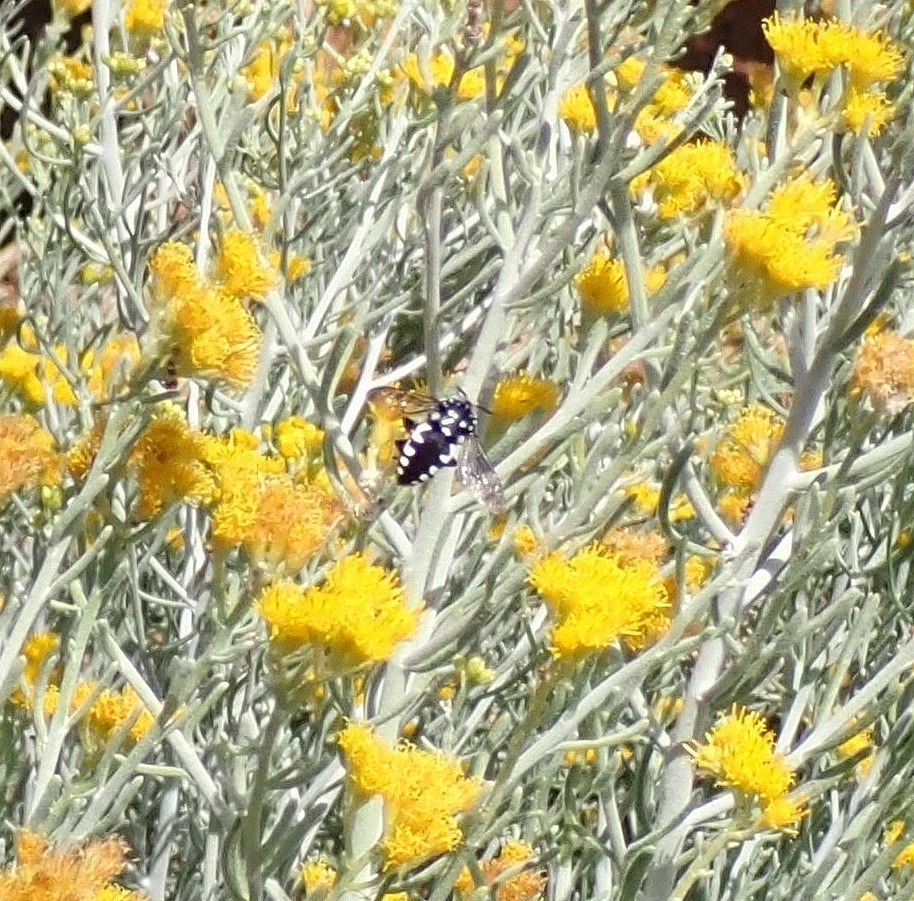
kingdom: Animalia
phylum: Arthropoda
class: Insecta
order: Hymenoptera
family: Apidae
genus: Thyreus
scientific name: Thyreus histrionicus
